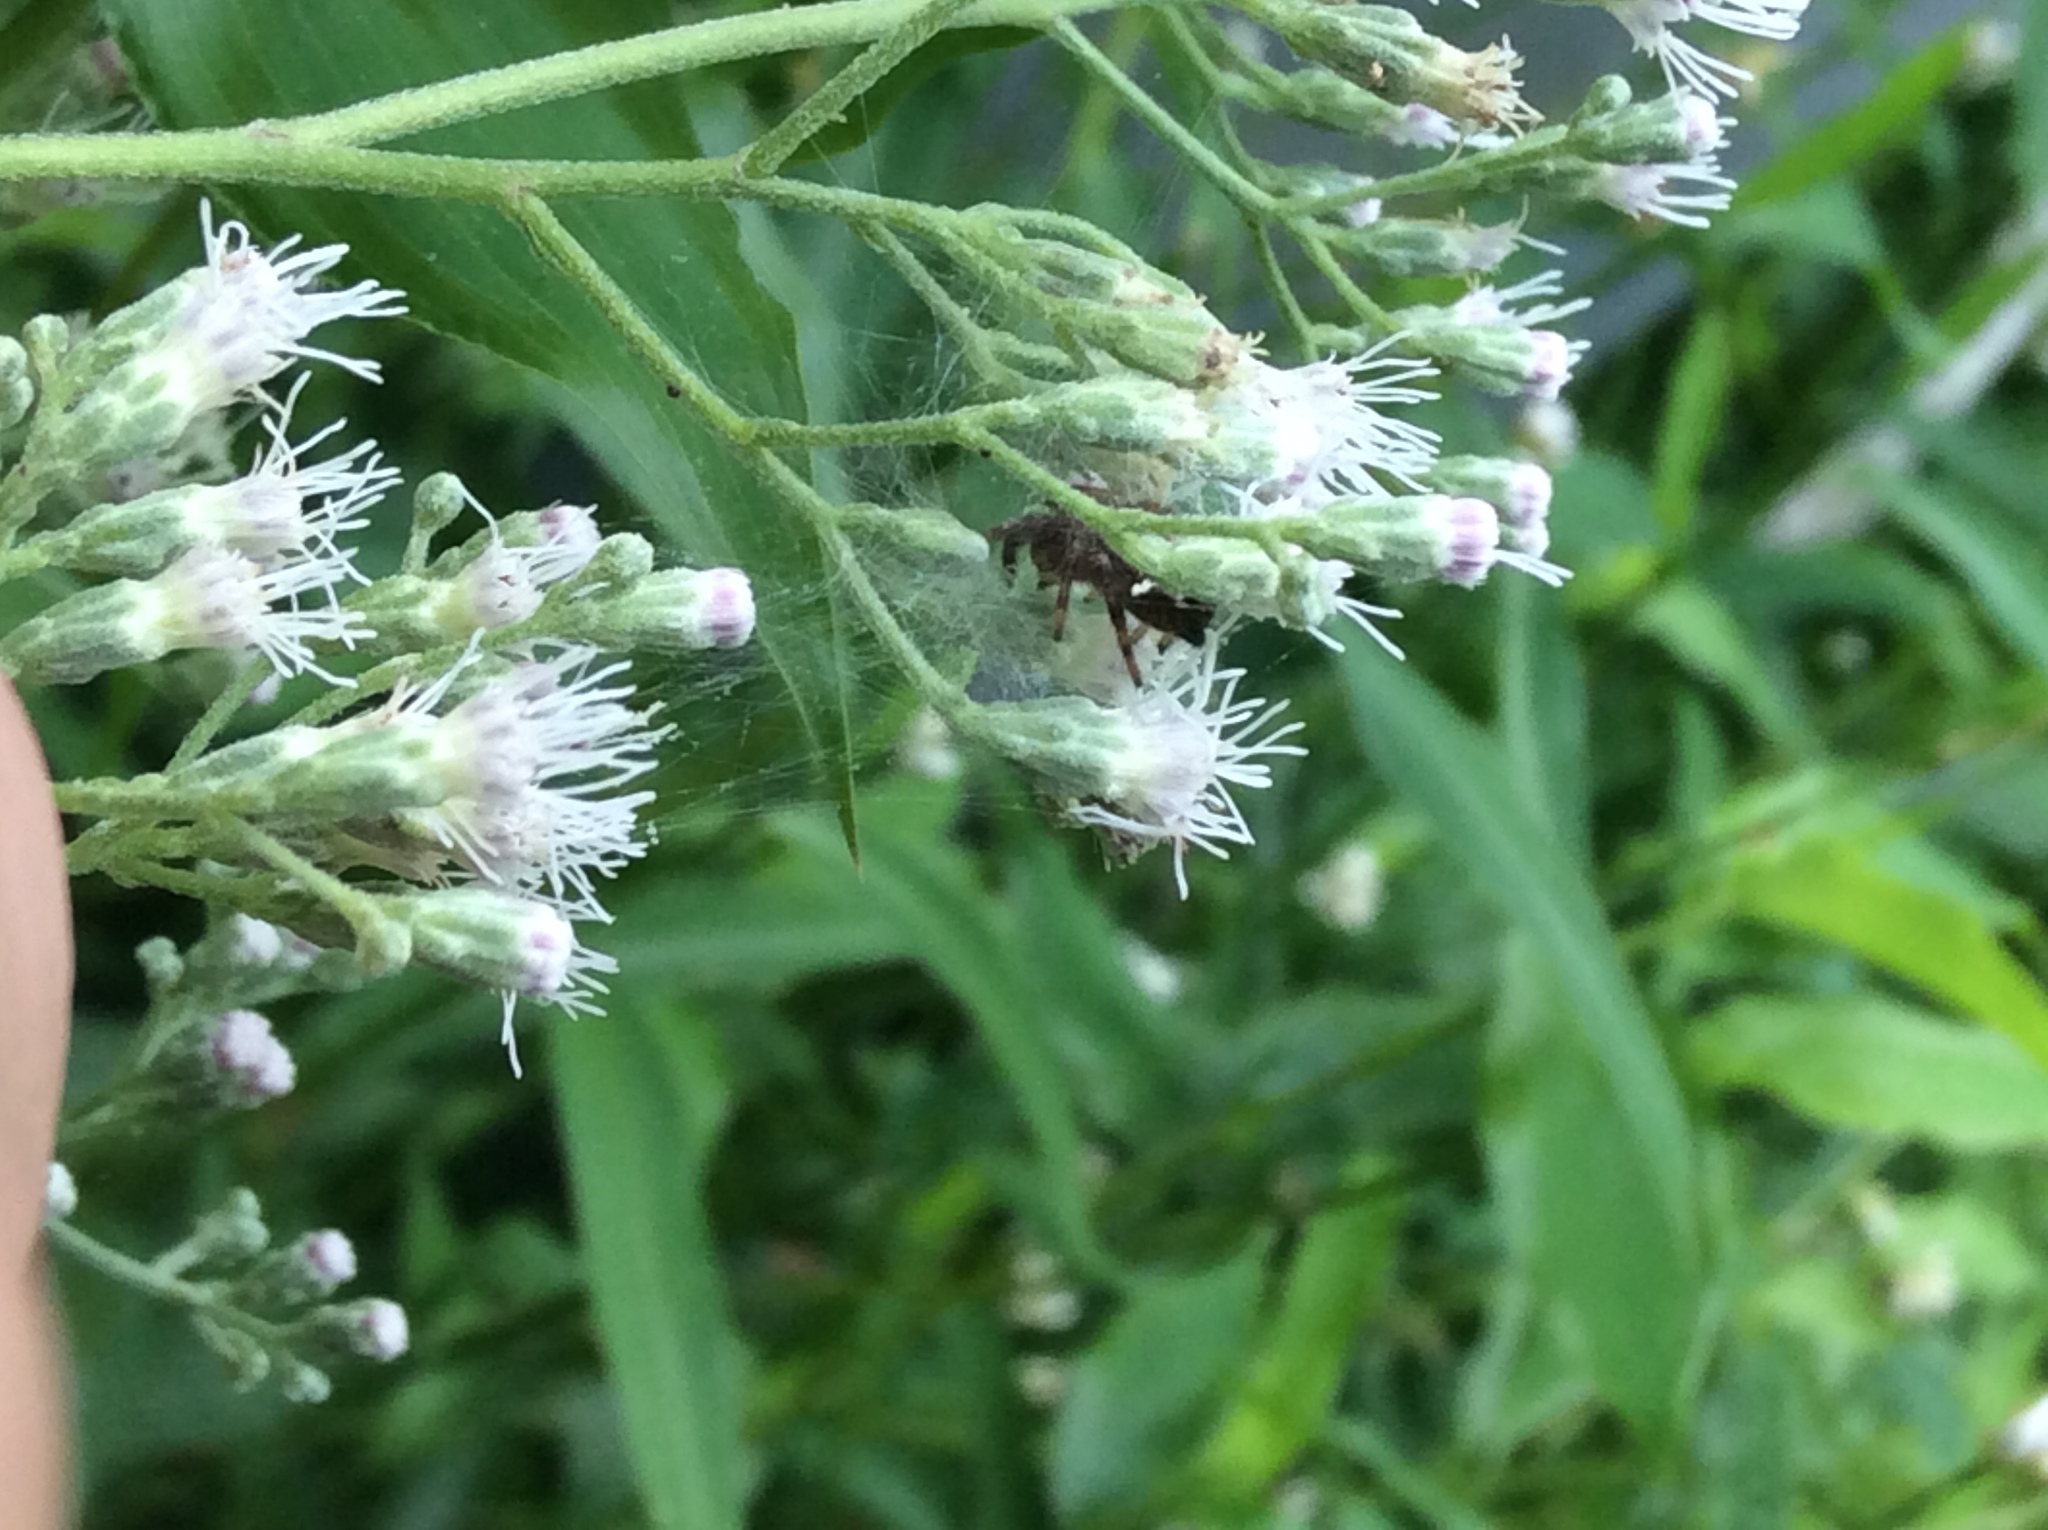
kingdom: Animalia
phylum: Arthropoda
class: Arachnida
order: Araneae
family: Salticidae
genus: Phidippus
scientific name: Phidippus audax
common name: Bold jumper
